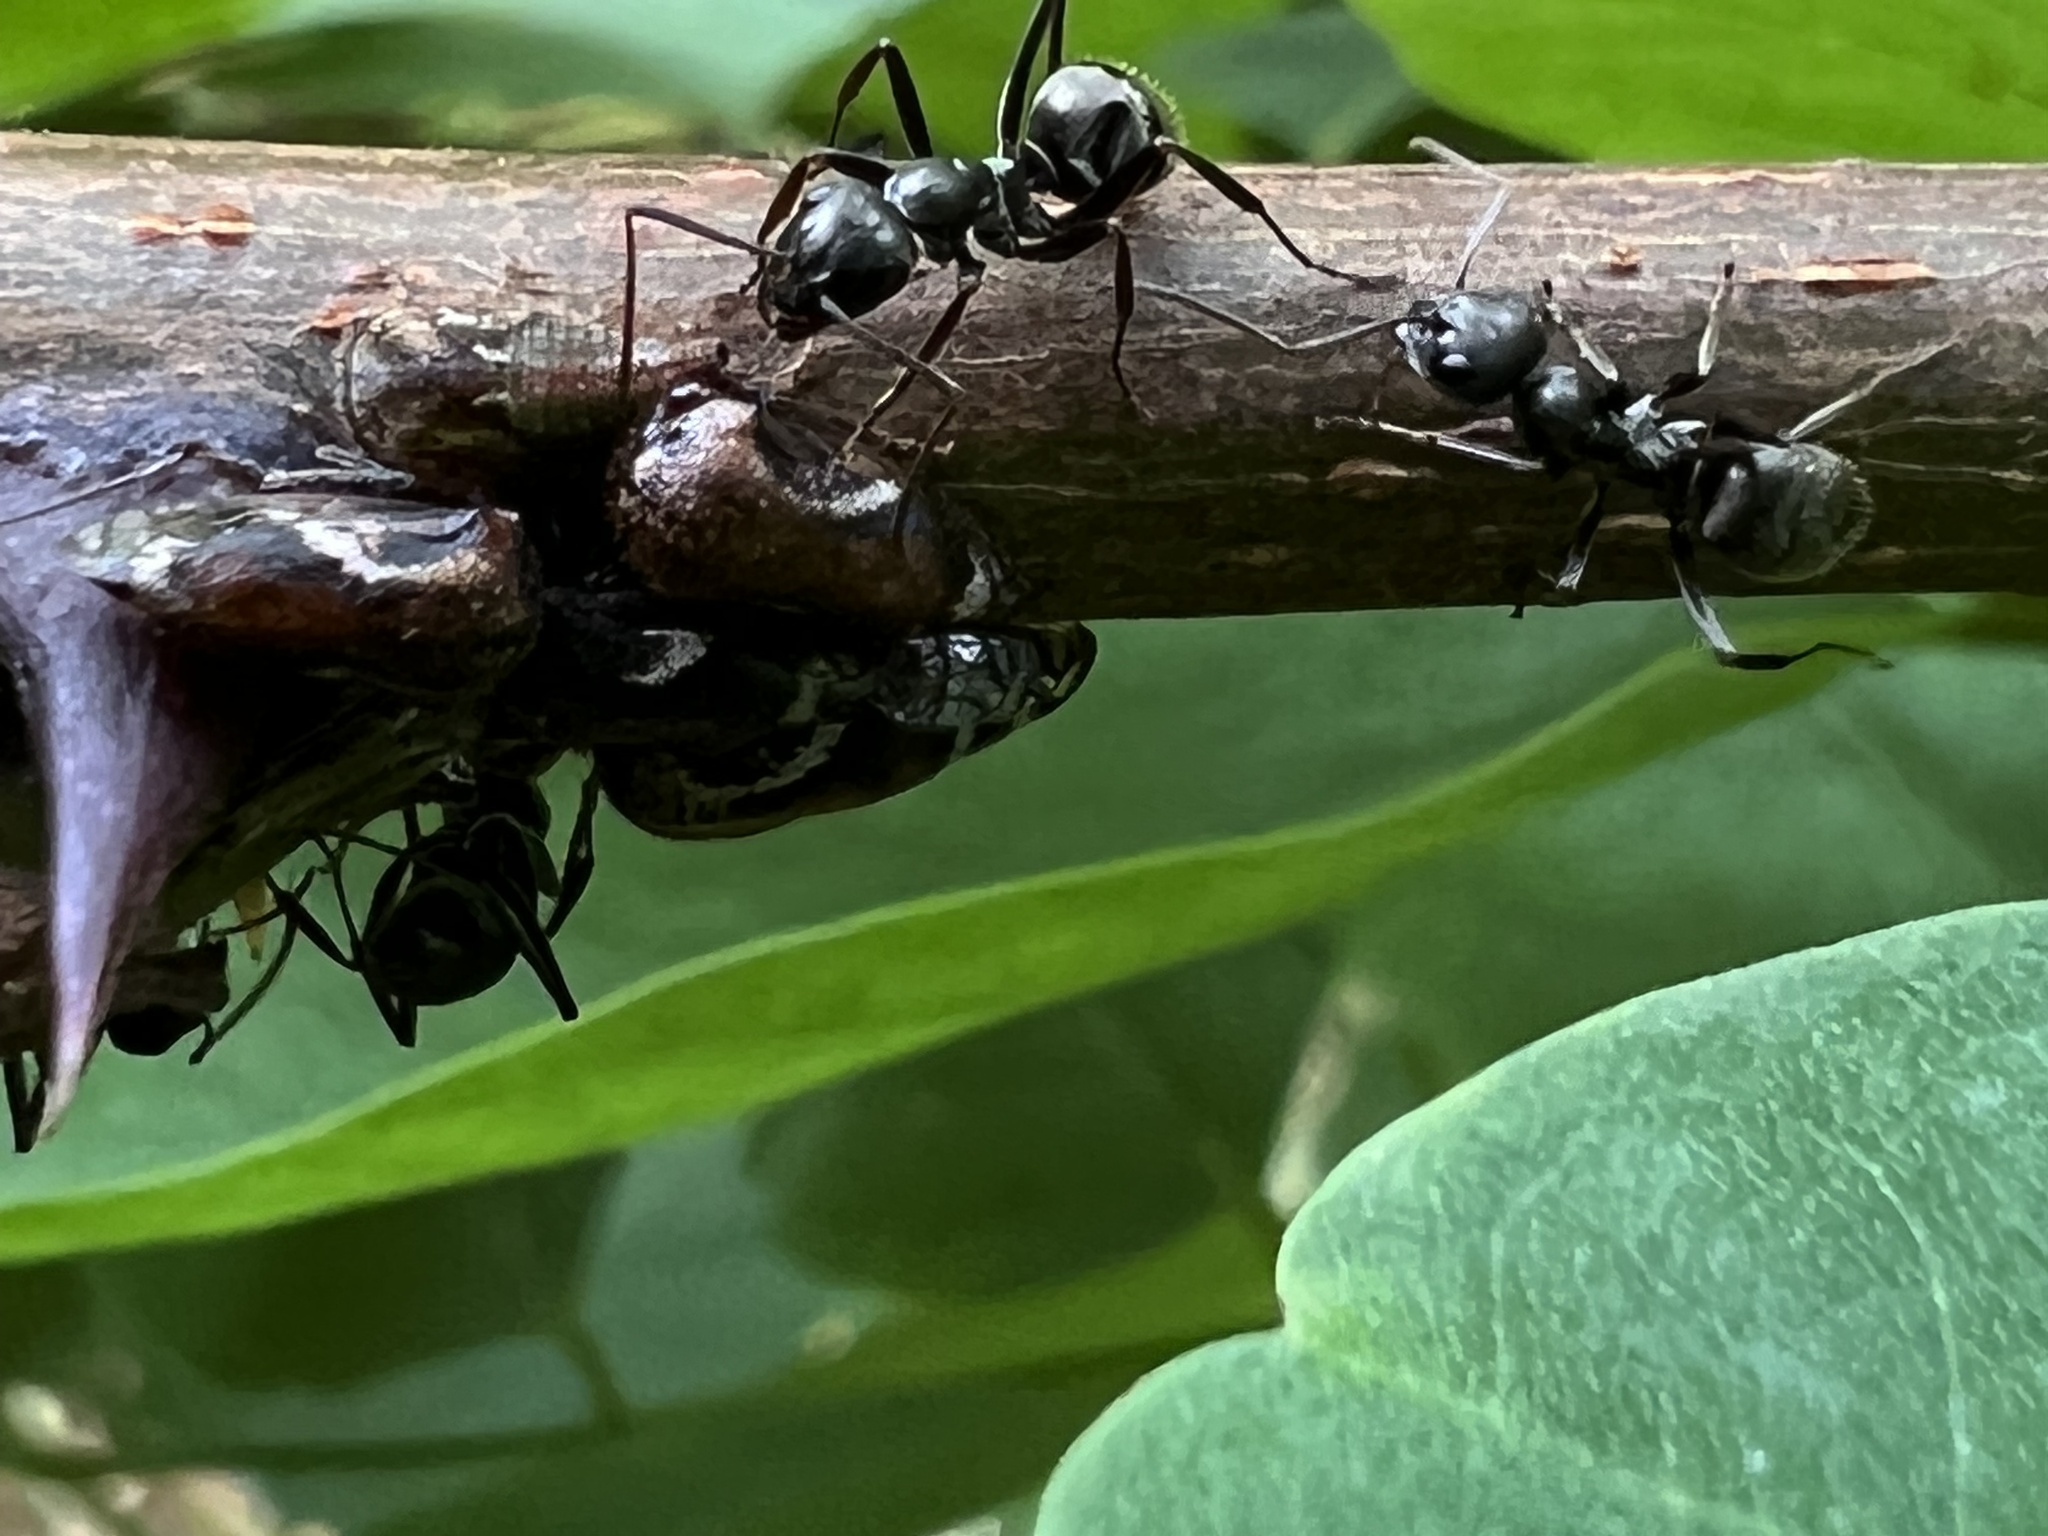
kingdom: Animalia
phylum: Arthropoda
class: Insecta
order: Hemiptera
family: Membracidae
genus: Vanduzea
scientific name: Vanduzea arquata
